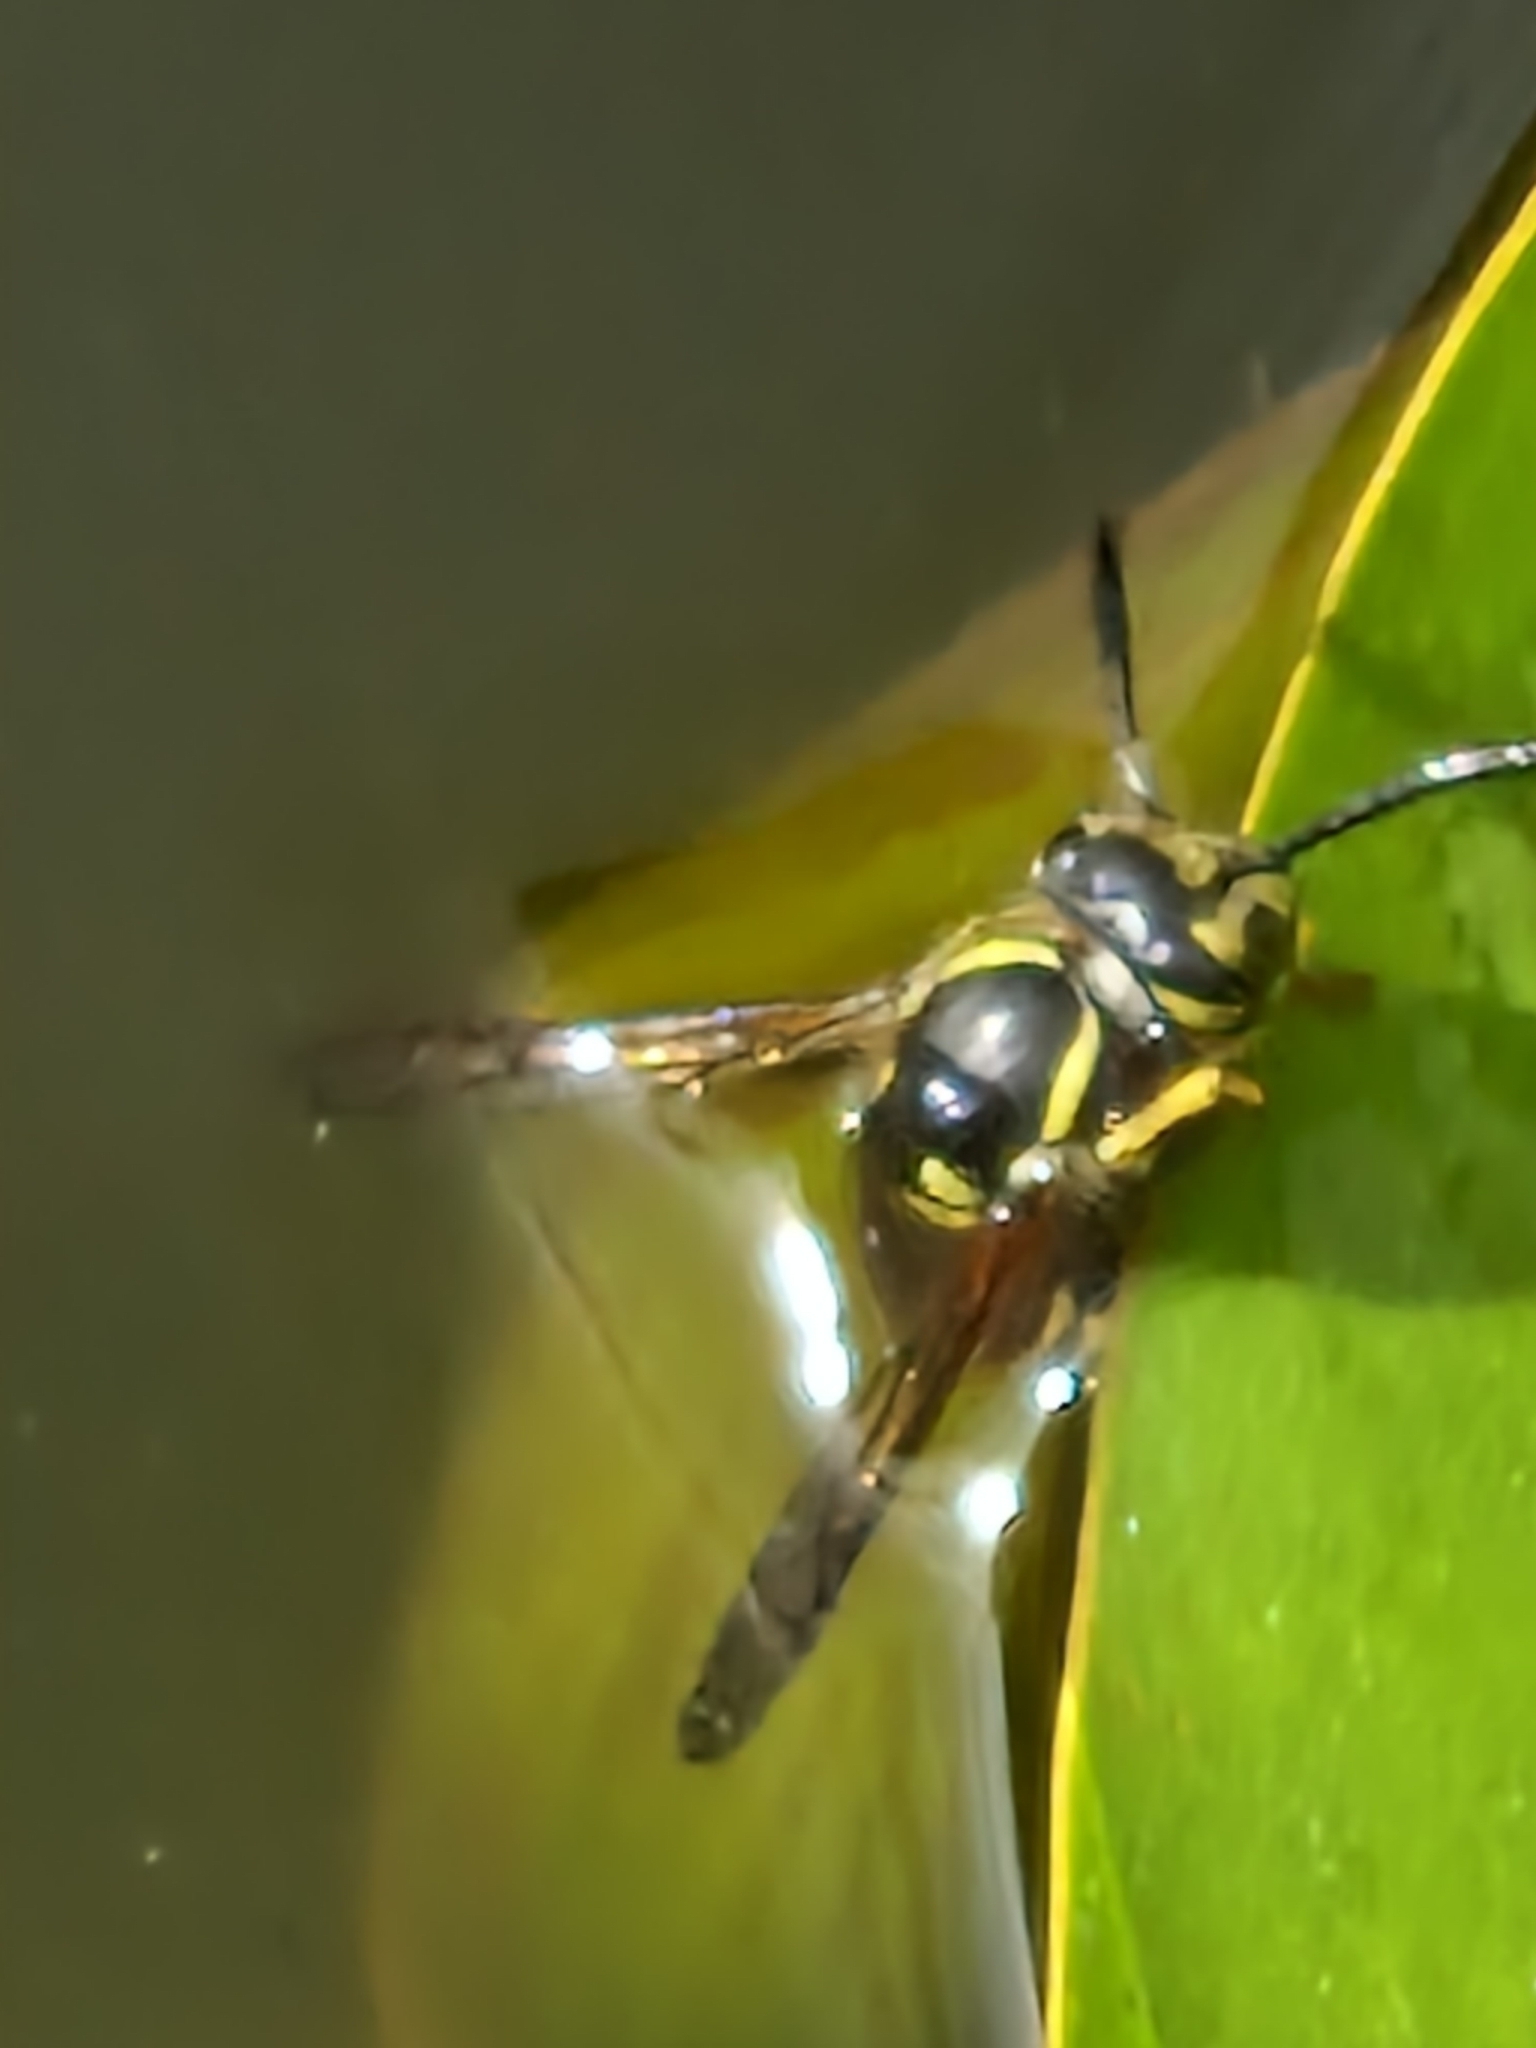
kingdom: Animalia
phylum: Arthropoda
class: Insecta
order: Hymenoptera
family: Vespidae
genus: Vespula
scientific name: Vespula vulgaris
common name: Common wasp
